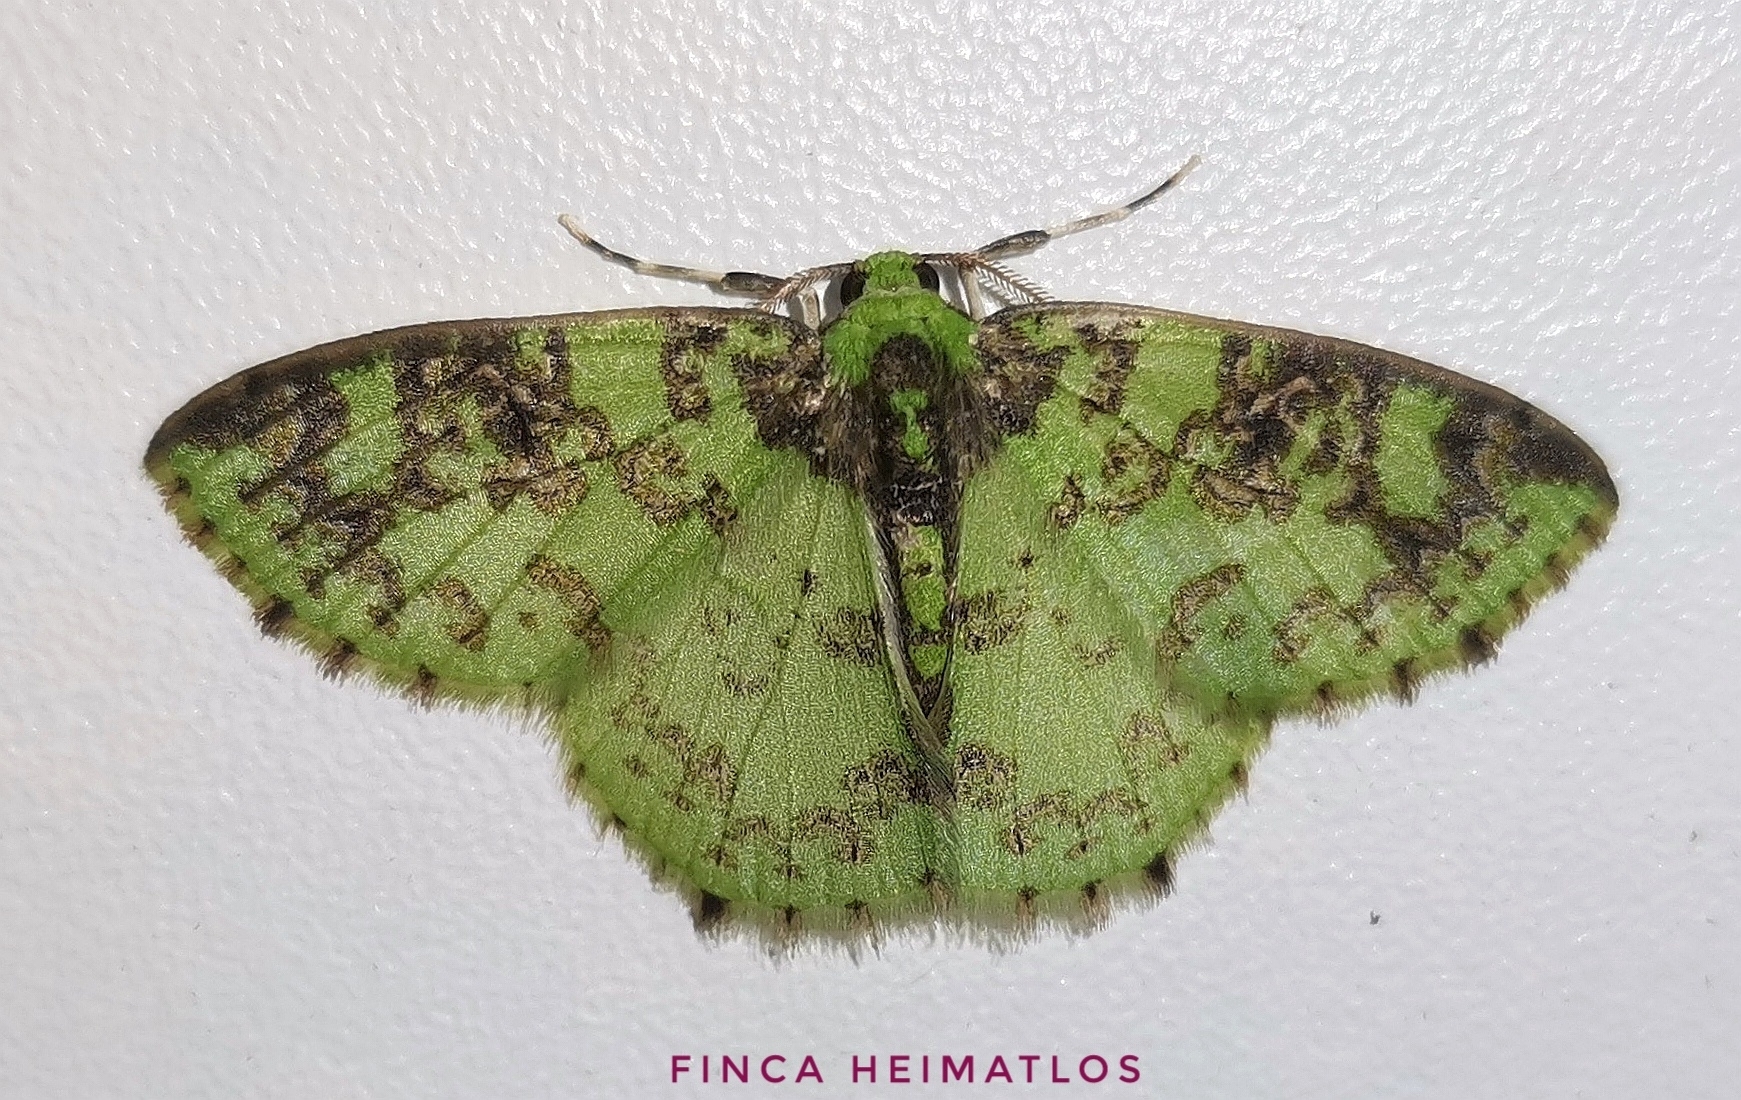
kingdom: Animalia
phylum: Arthropoda
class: Insecta
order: Lepidoptera
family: Geometridae
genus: Nemoria
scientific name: Nemoria scriptaria
